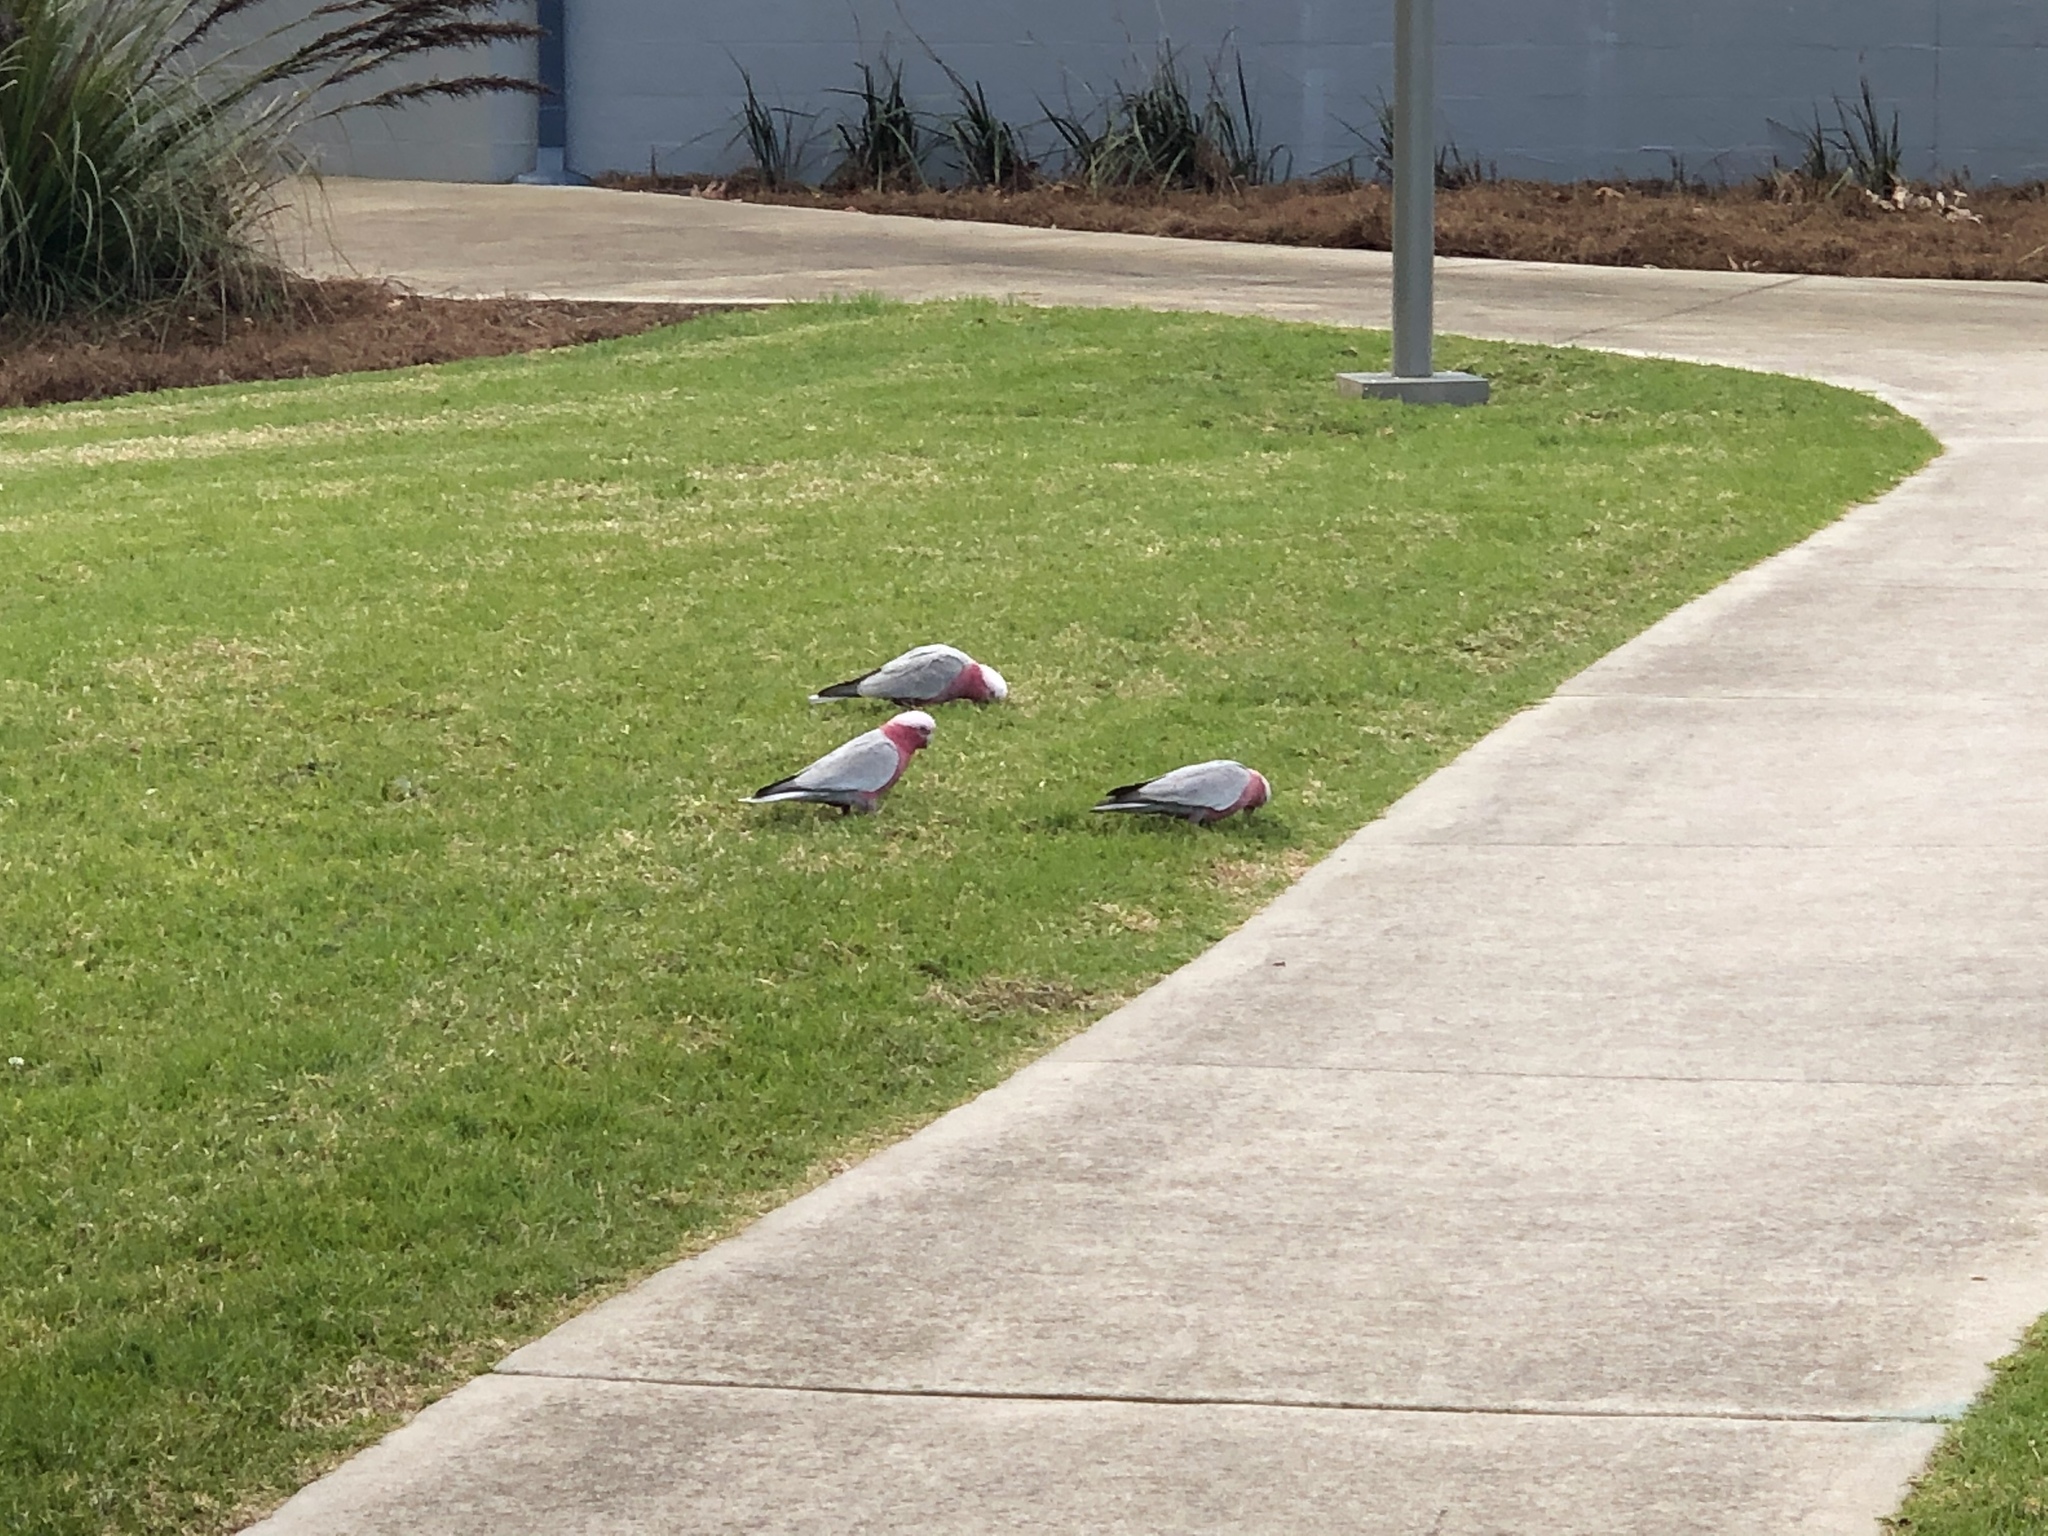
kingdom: Animalia
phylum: Chordata
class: Aves
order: Psittaciformes
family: Psittacidae
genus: Eolophus
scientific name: Eolophus roseicapilla
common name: Galah
